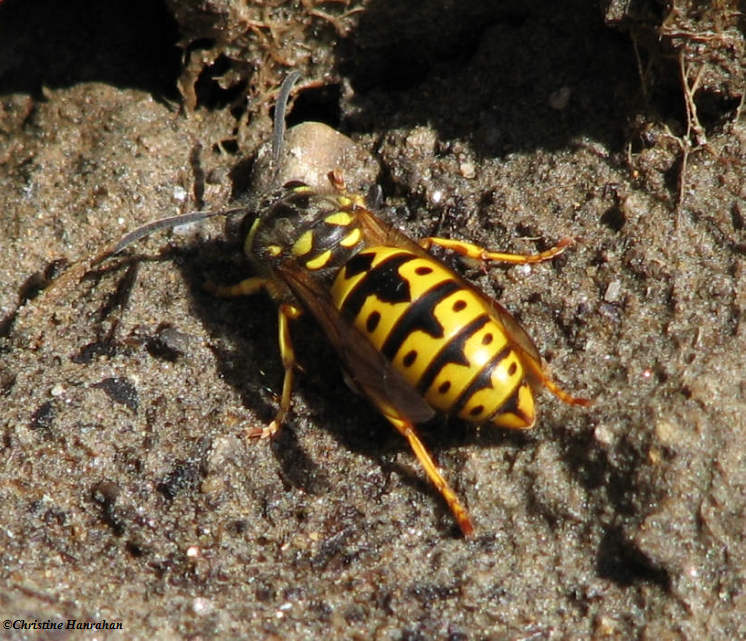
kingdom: Animalia
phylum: Arthropoda
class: Insecta
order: Hymenoptera
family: Vespidae
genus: Vespula
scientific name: Vespula germanica
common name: German wasp
